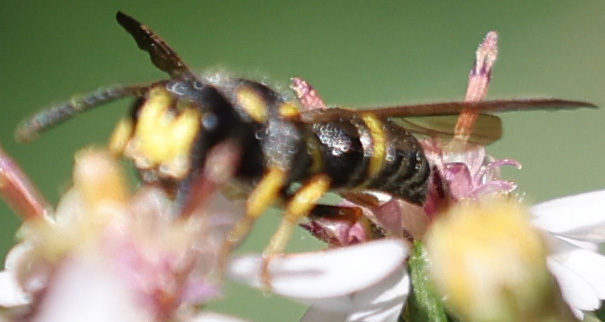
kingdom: Animalia
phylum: Arthropoda
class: Insecta
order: Hymenoptera
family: Crabronidae
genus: Cerceris
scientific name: Cerceris insolita
